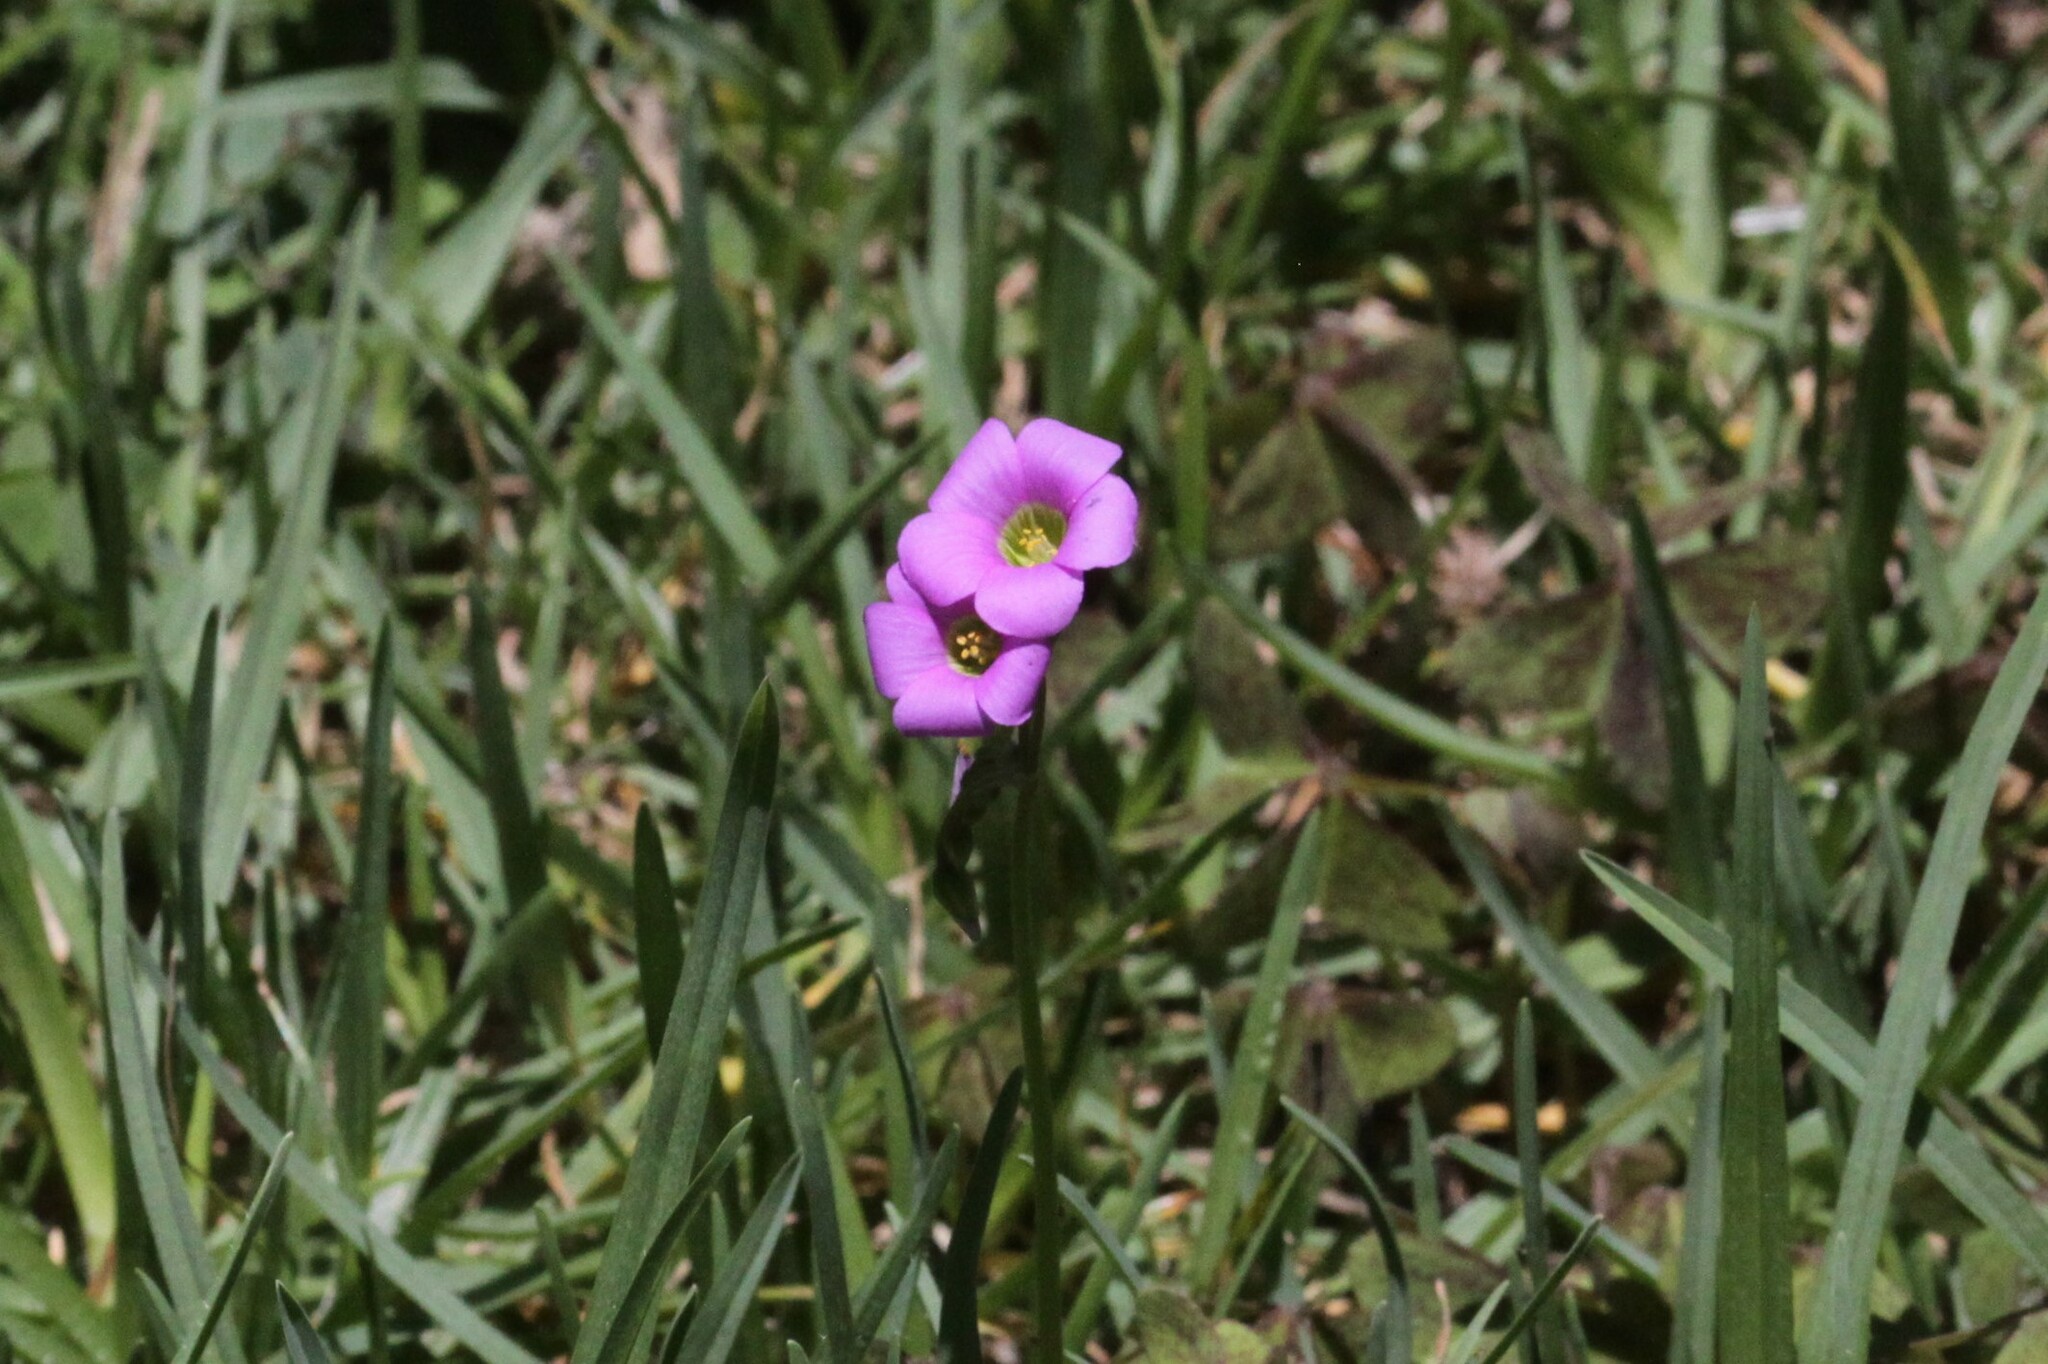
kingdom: Plantae
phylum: Tracheophyta
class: Magnoliopsida
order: Oxalidales
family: Oxalidaceae
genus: Oxalis
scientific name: Oxalis latifolia
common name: Garden pink-sorrel
